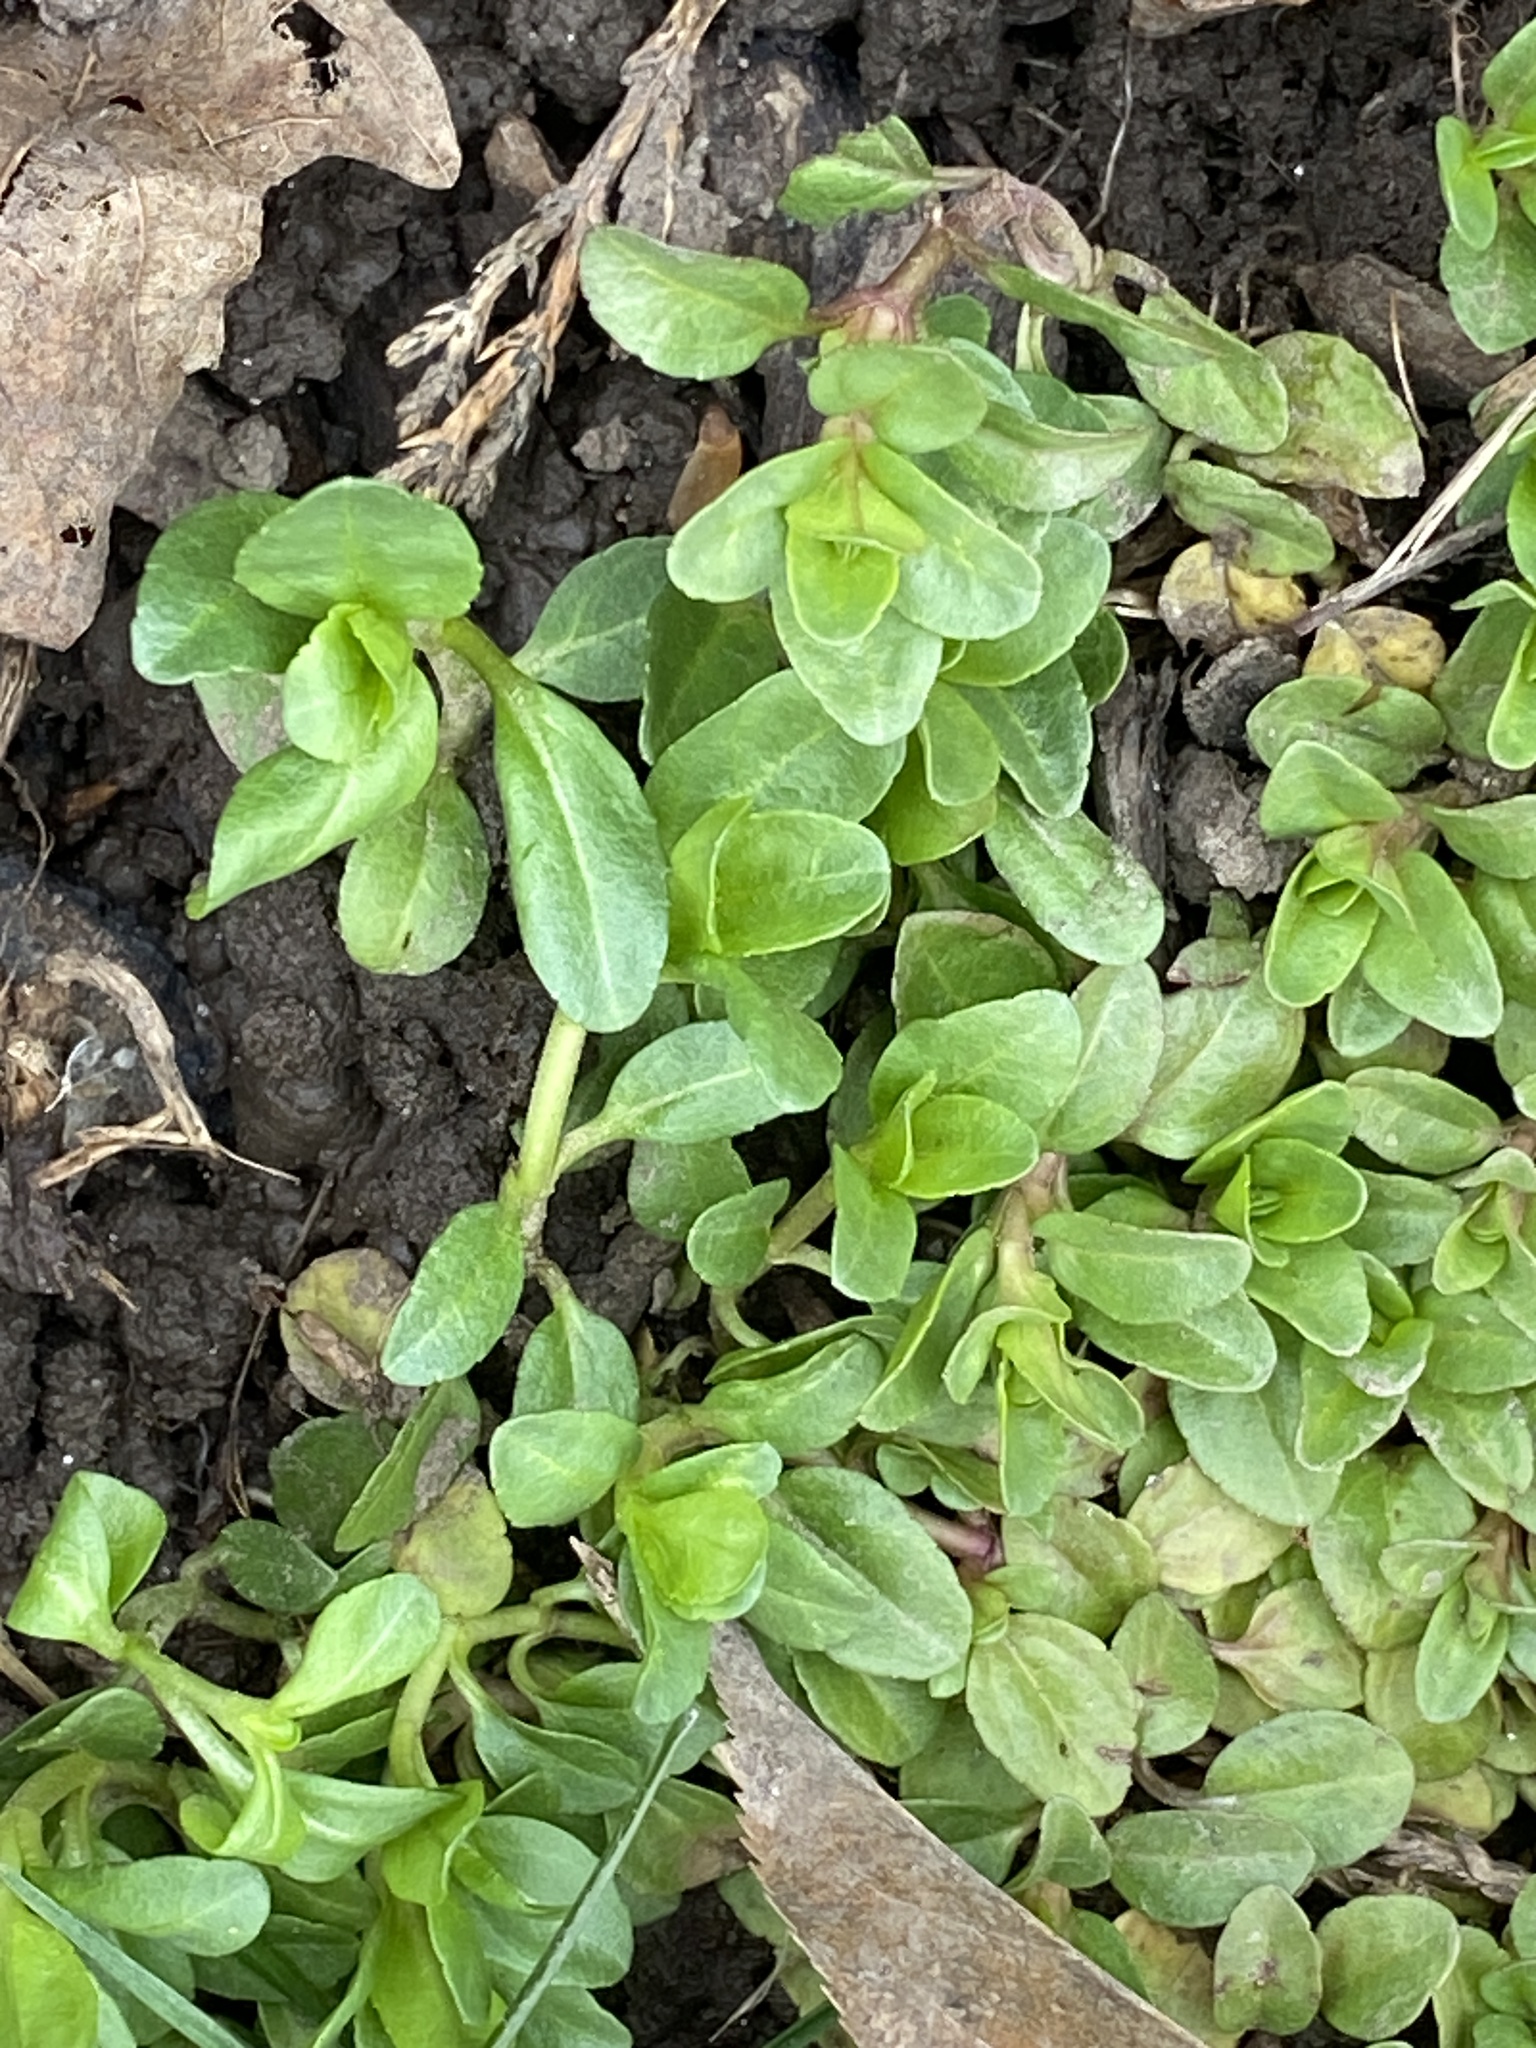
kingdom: Plantae
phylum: Tracheophyta
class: Magnoliopsida
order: Lamiales
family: Plantaginaceae
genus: Veronica
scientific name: Veronica serpyllifolia
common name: Thyme-leaved speedwell
